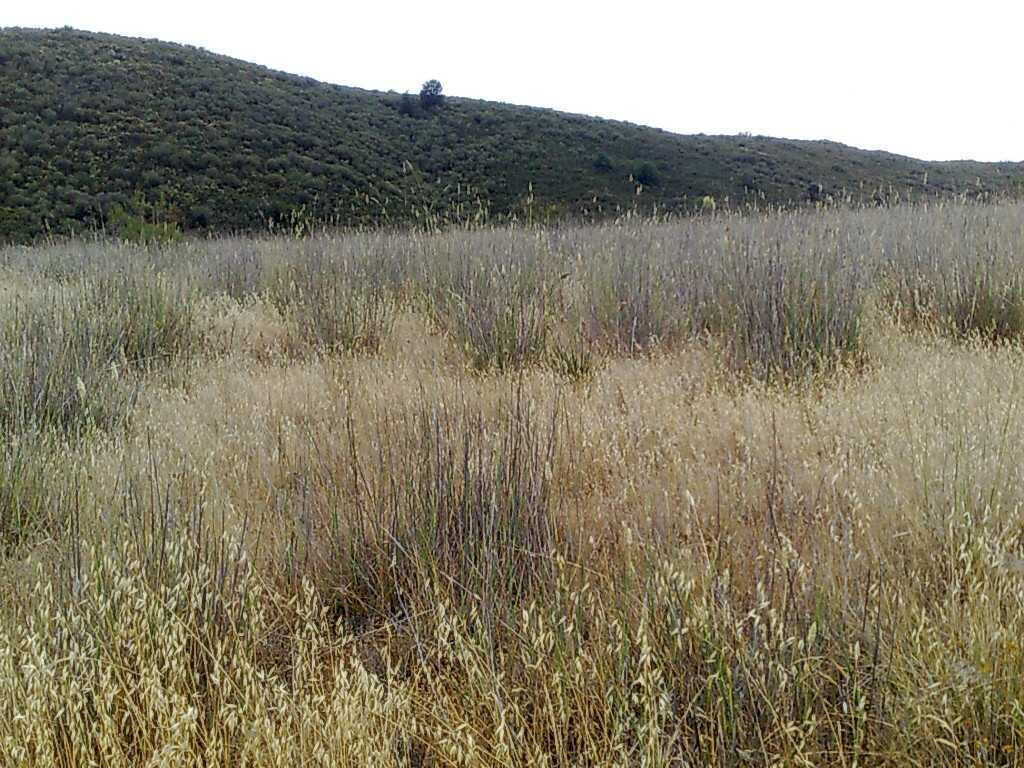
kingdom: Plantae
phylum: Tracheophyta
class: Liliopsida
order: Poales
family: Poaceae
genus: Phalaris
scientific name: Phalaris aquatica
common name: Bulbous canary-grass
